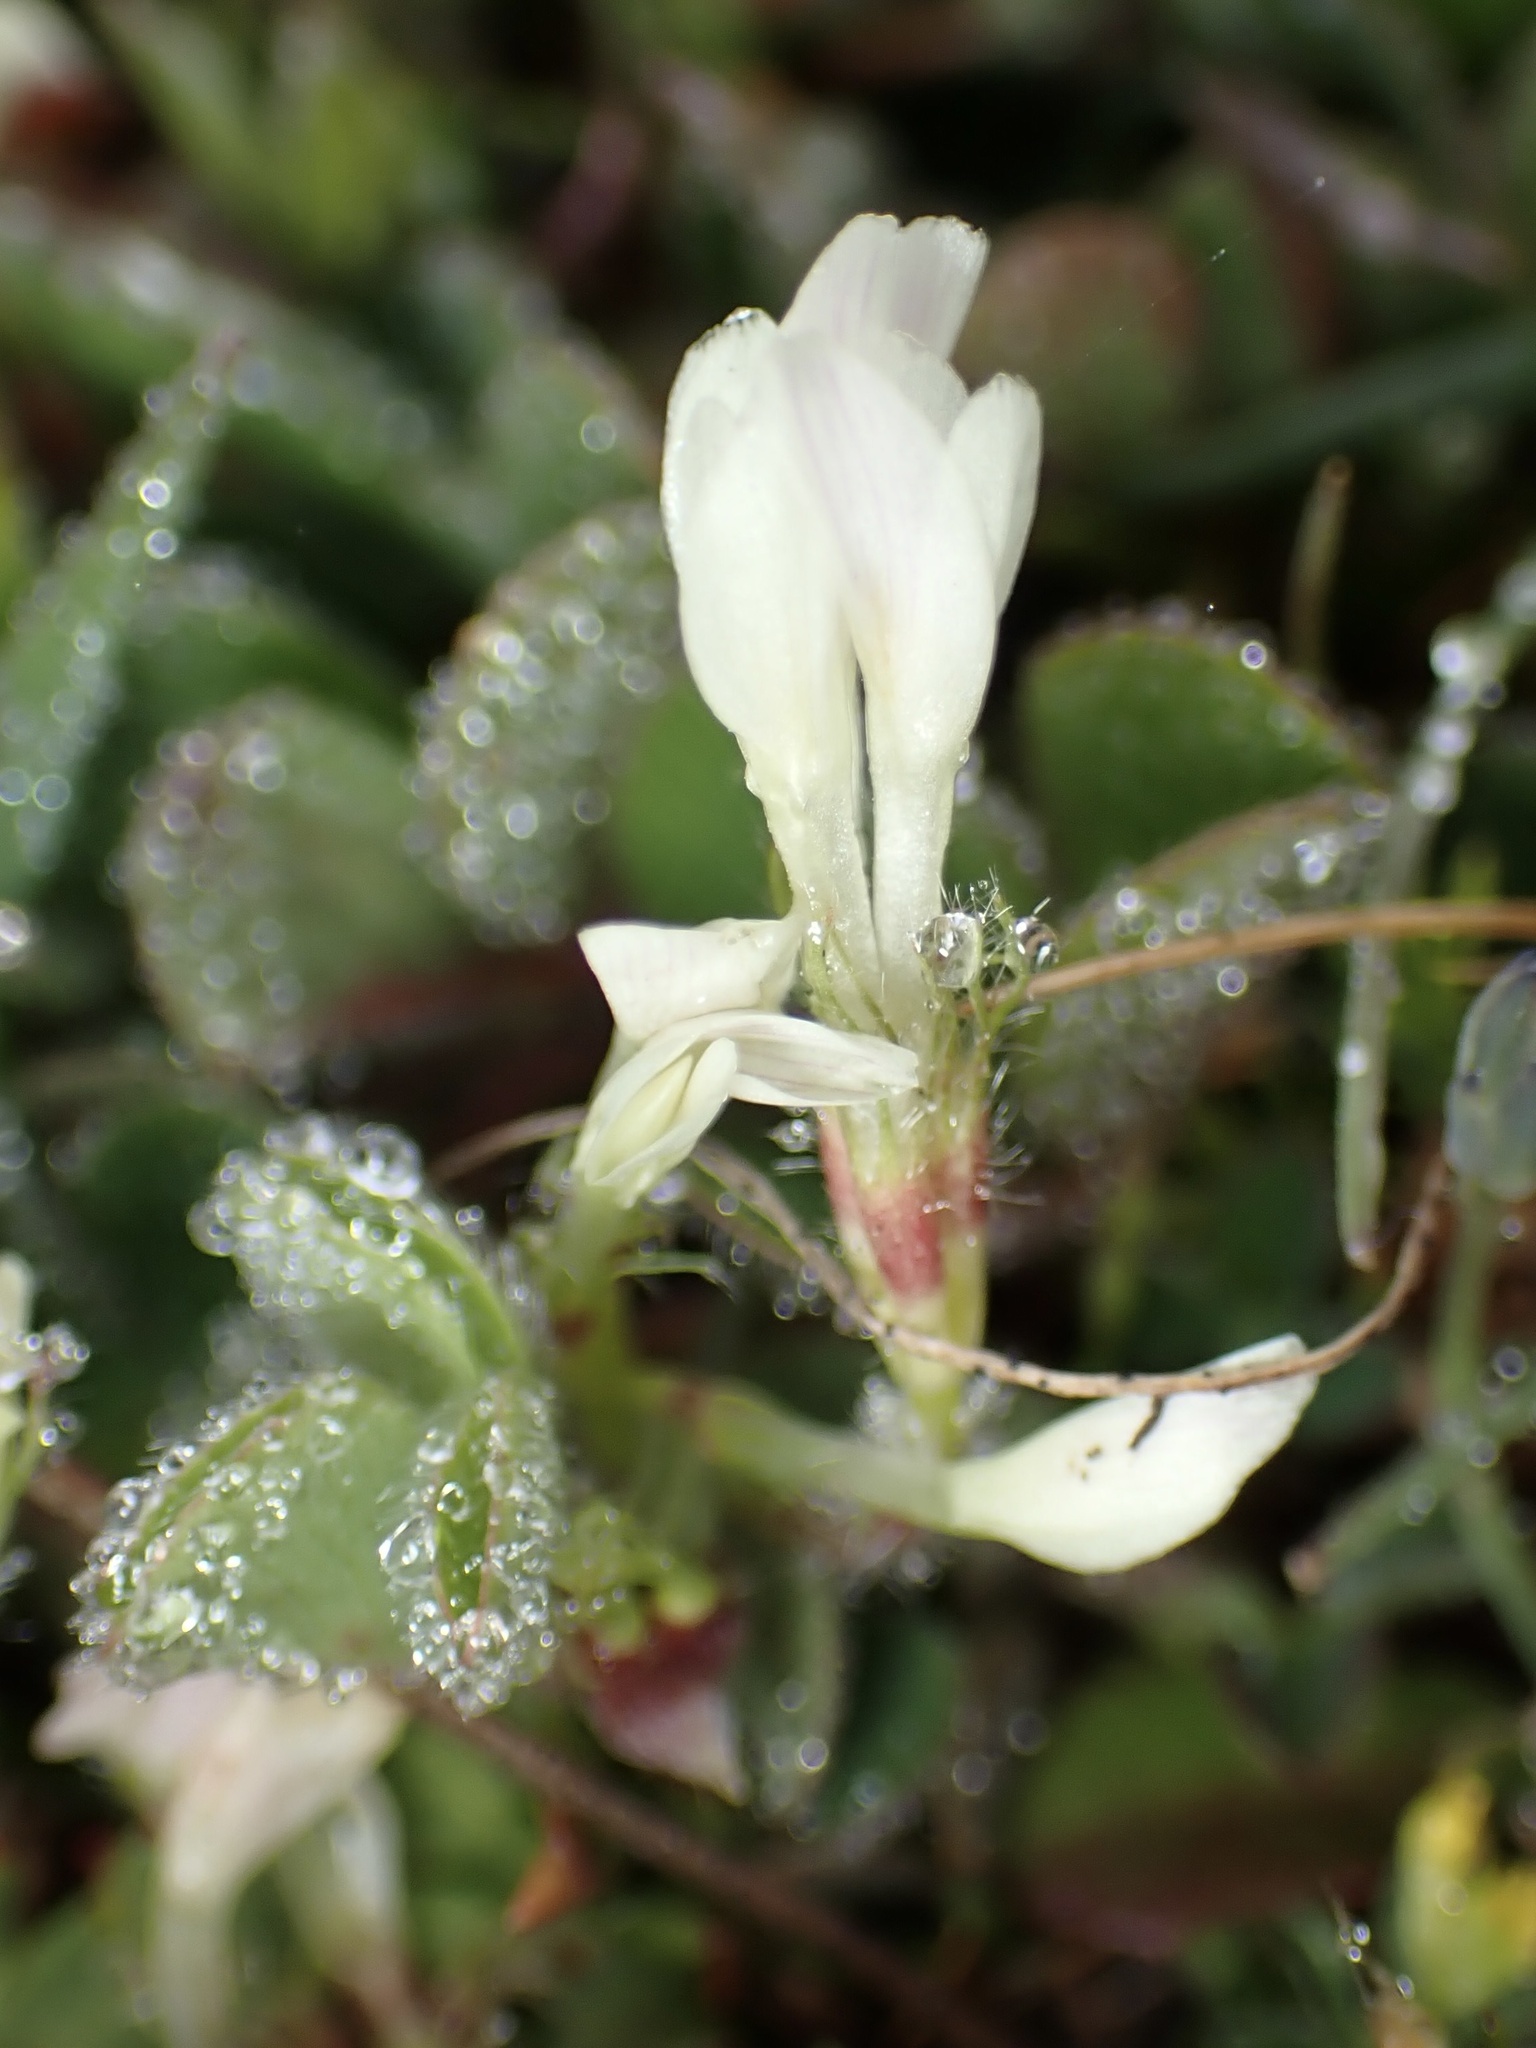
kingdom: Plantae
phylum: Tracheophyta
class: Magnoliopsida
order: Fabales
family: Fabaceae
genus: Trifolium
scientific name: Trifolium subterraneum
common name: Subterranean clover
